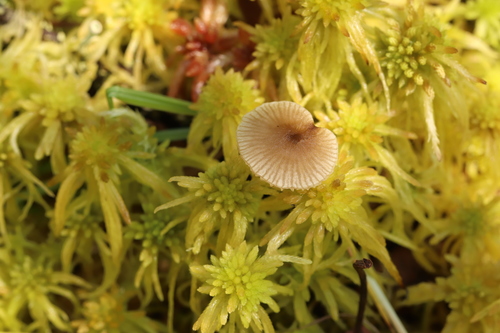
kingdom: Fungi
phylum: Basidiomycota
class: Agaricomycetes
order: Agaricales
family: Lyophyllaceae
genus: Sphagnurus
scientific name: Sphagnurus paluster
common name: Sphagnum greyling
